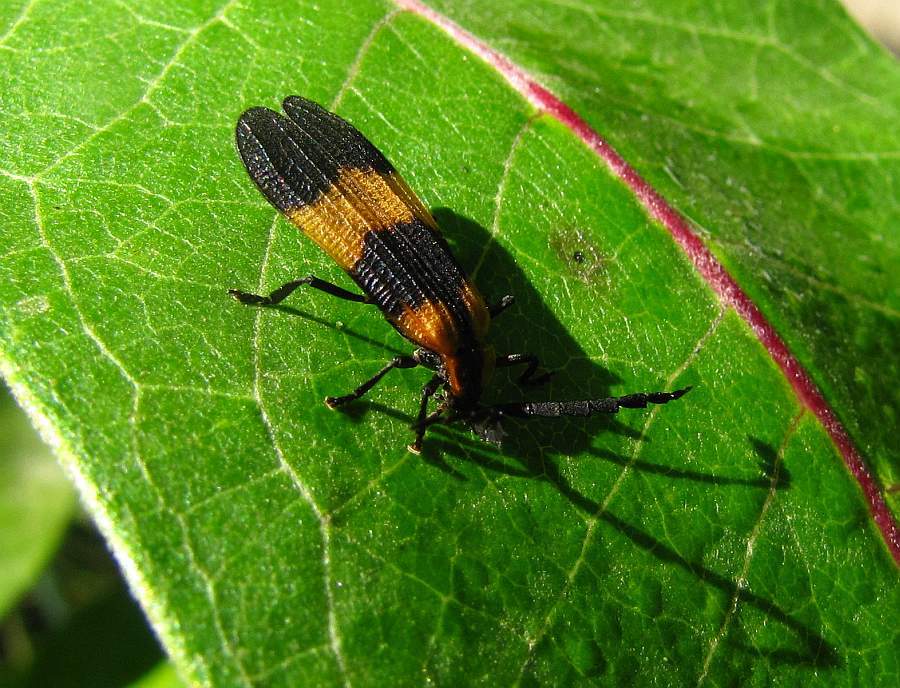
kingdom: Animalia
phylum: Arthropoda
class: Insecta
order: Coleoptera
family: Lycidae
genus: Calopteron
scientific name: Calopteron reticulatum
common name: Banded net-winged beetle
